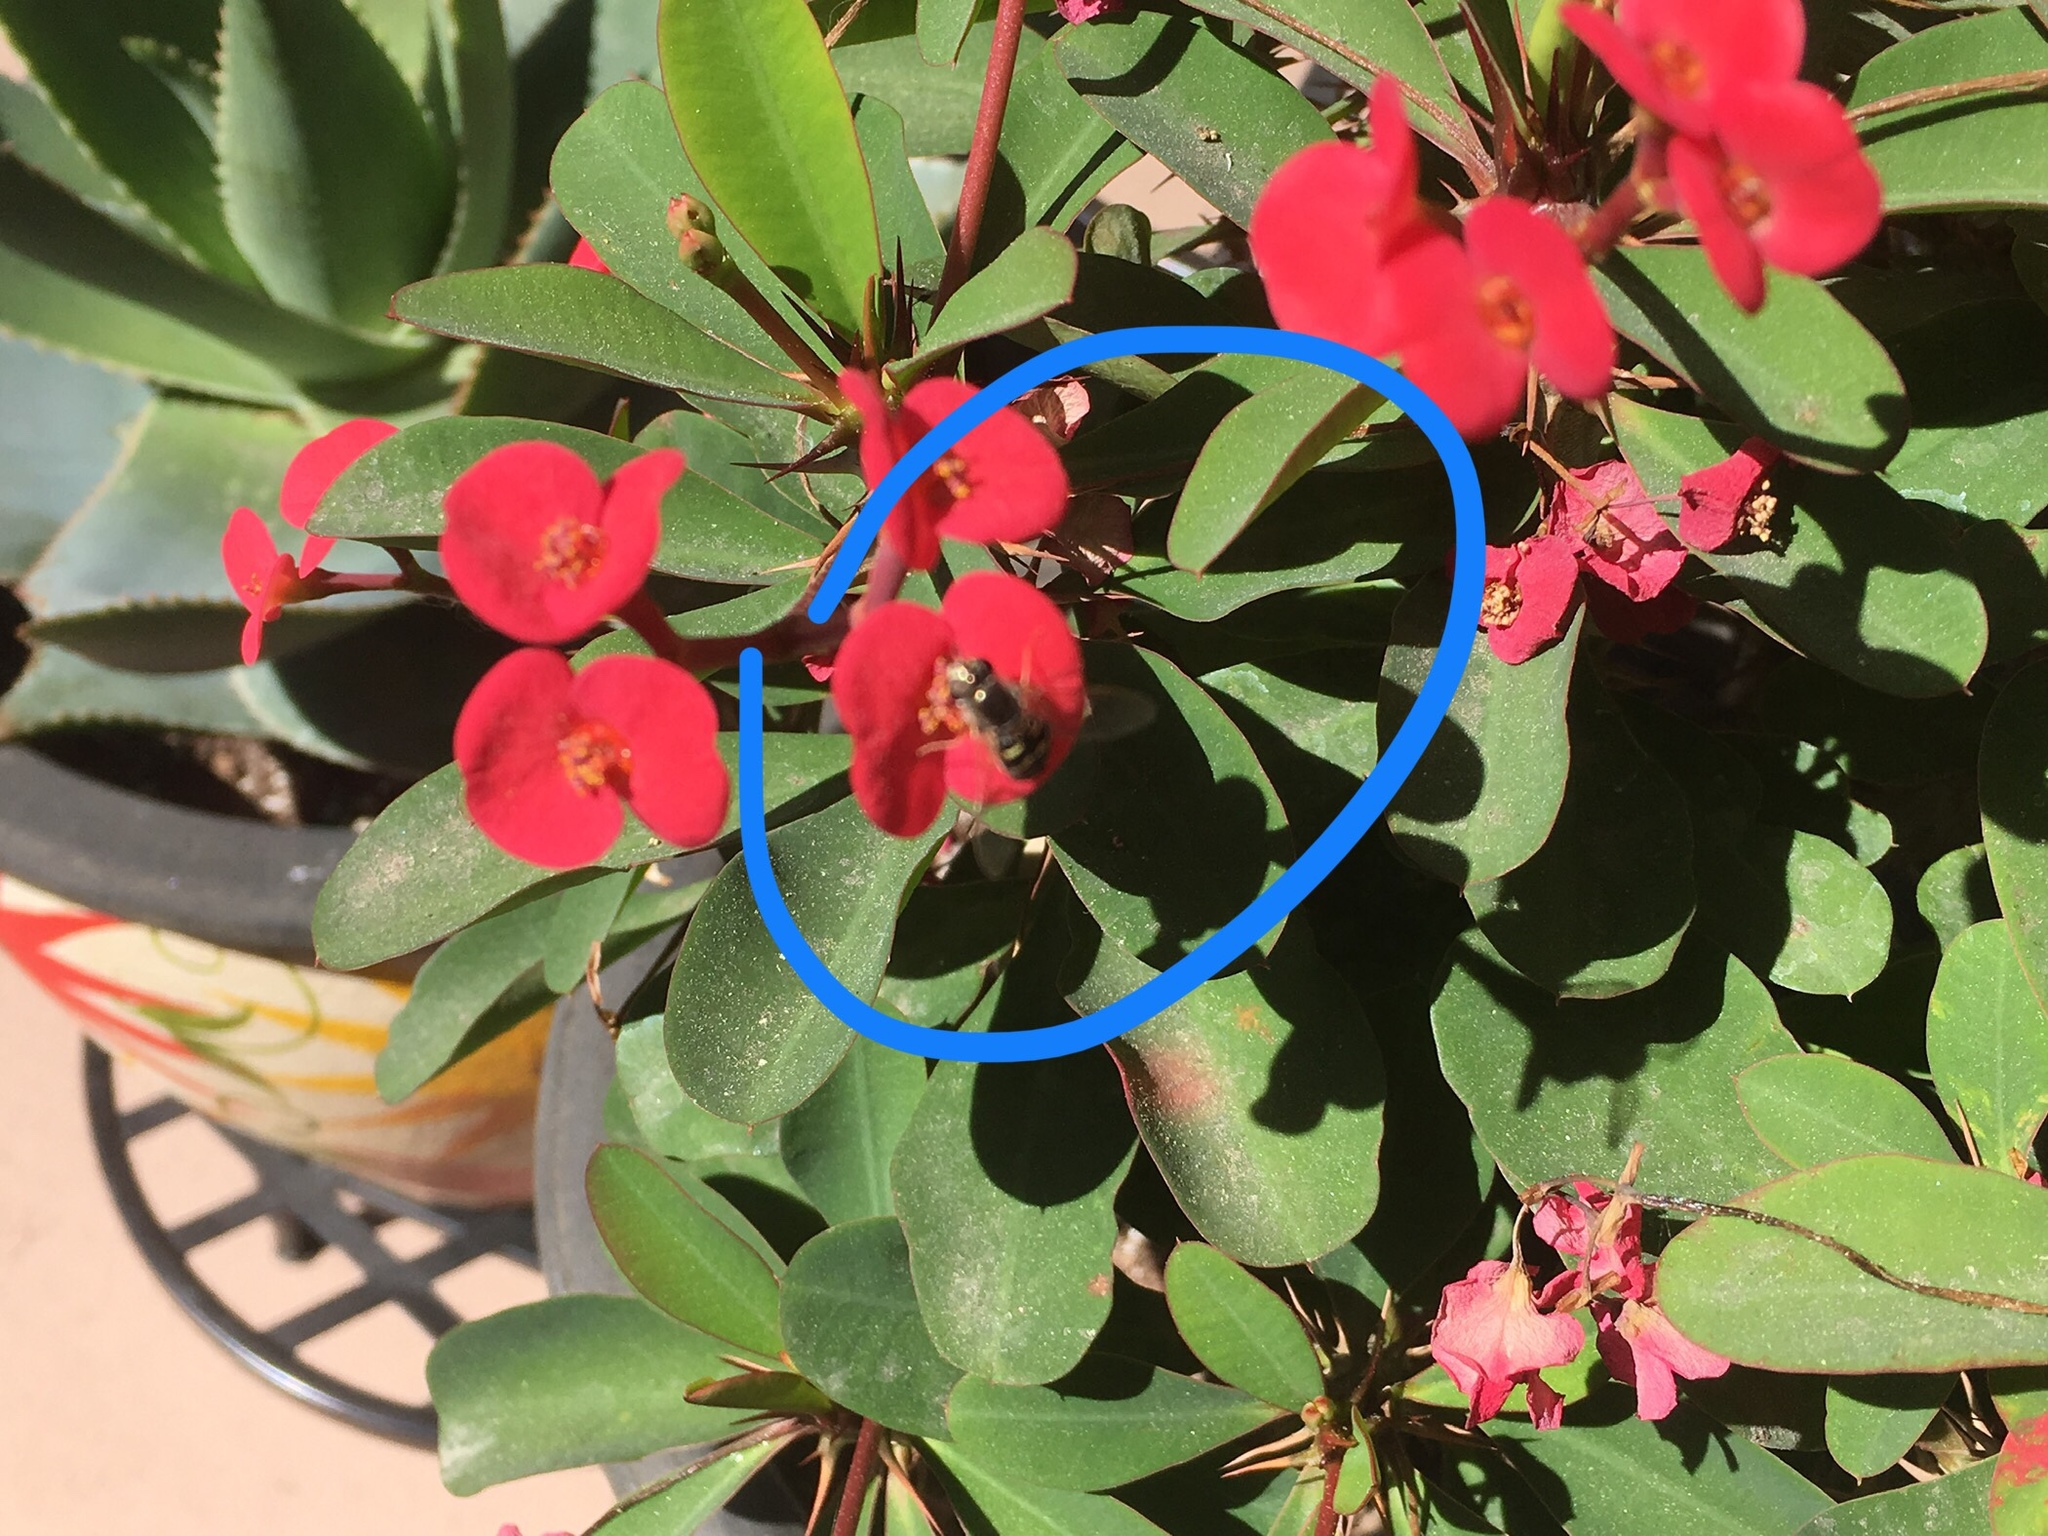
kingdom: Animalia
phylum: Arthropoda
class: Insecta
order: Diptera
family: Syrphidae
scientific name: Syrphidae
